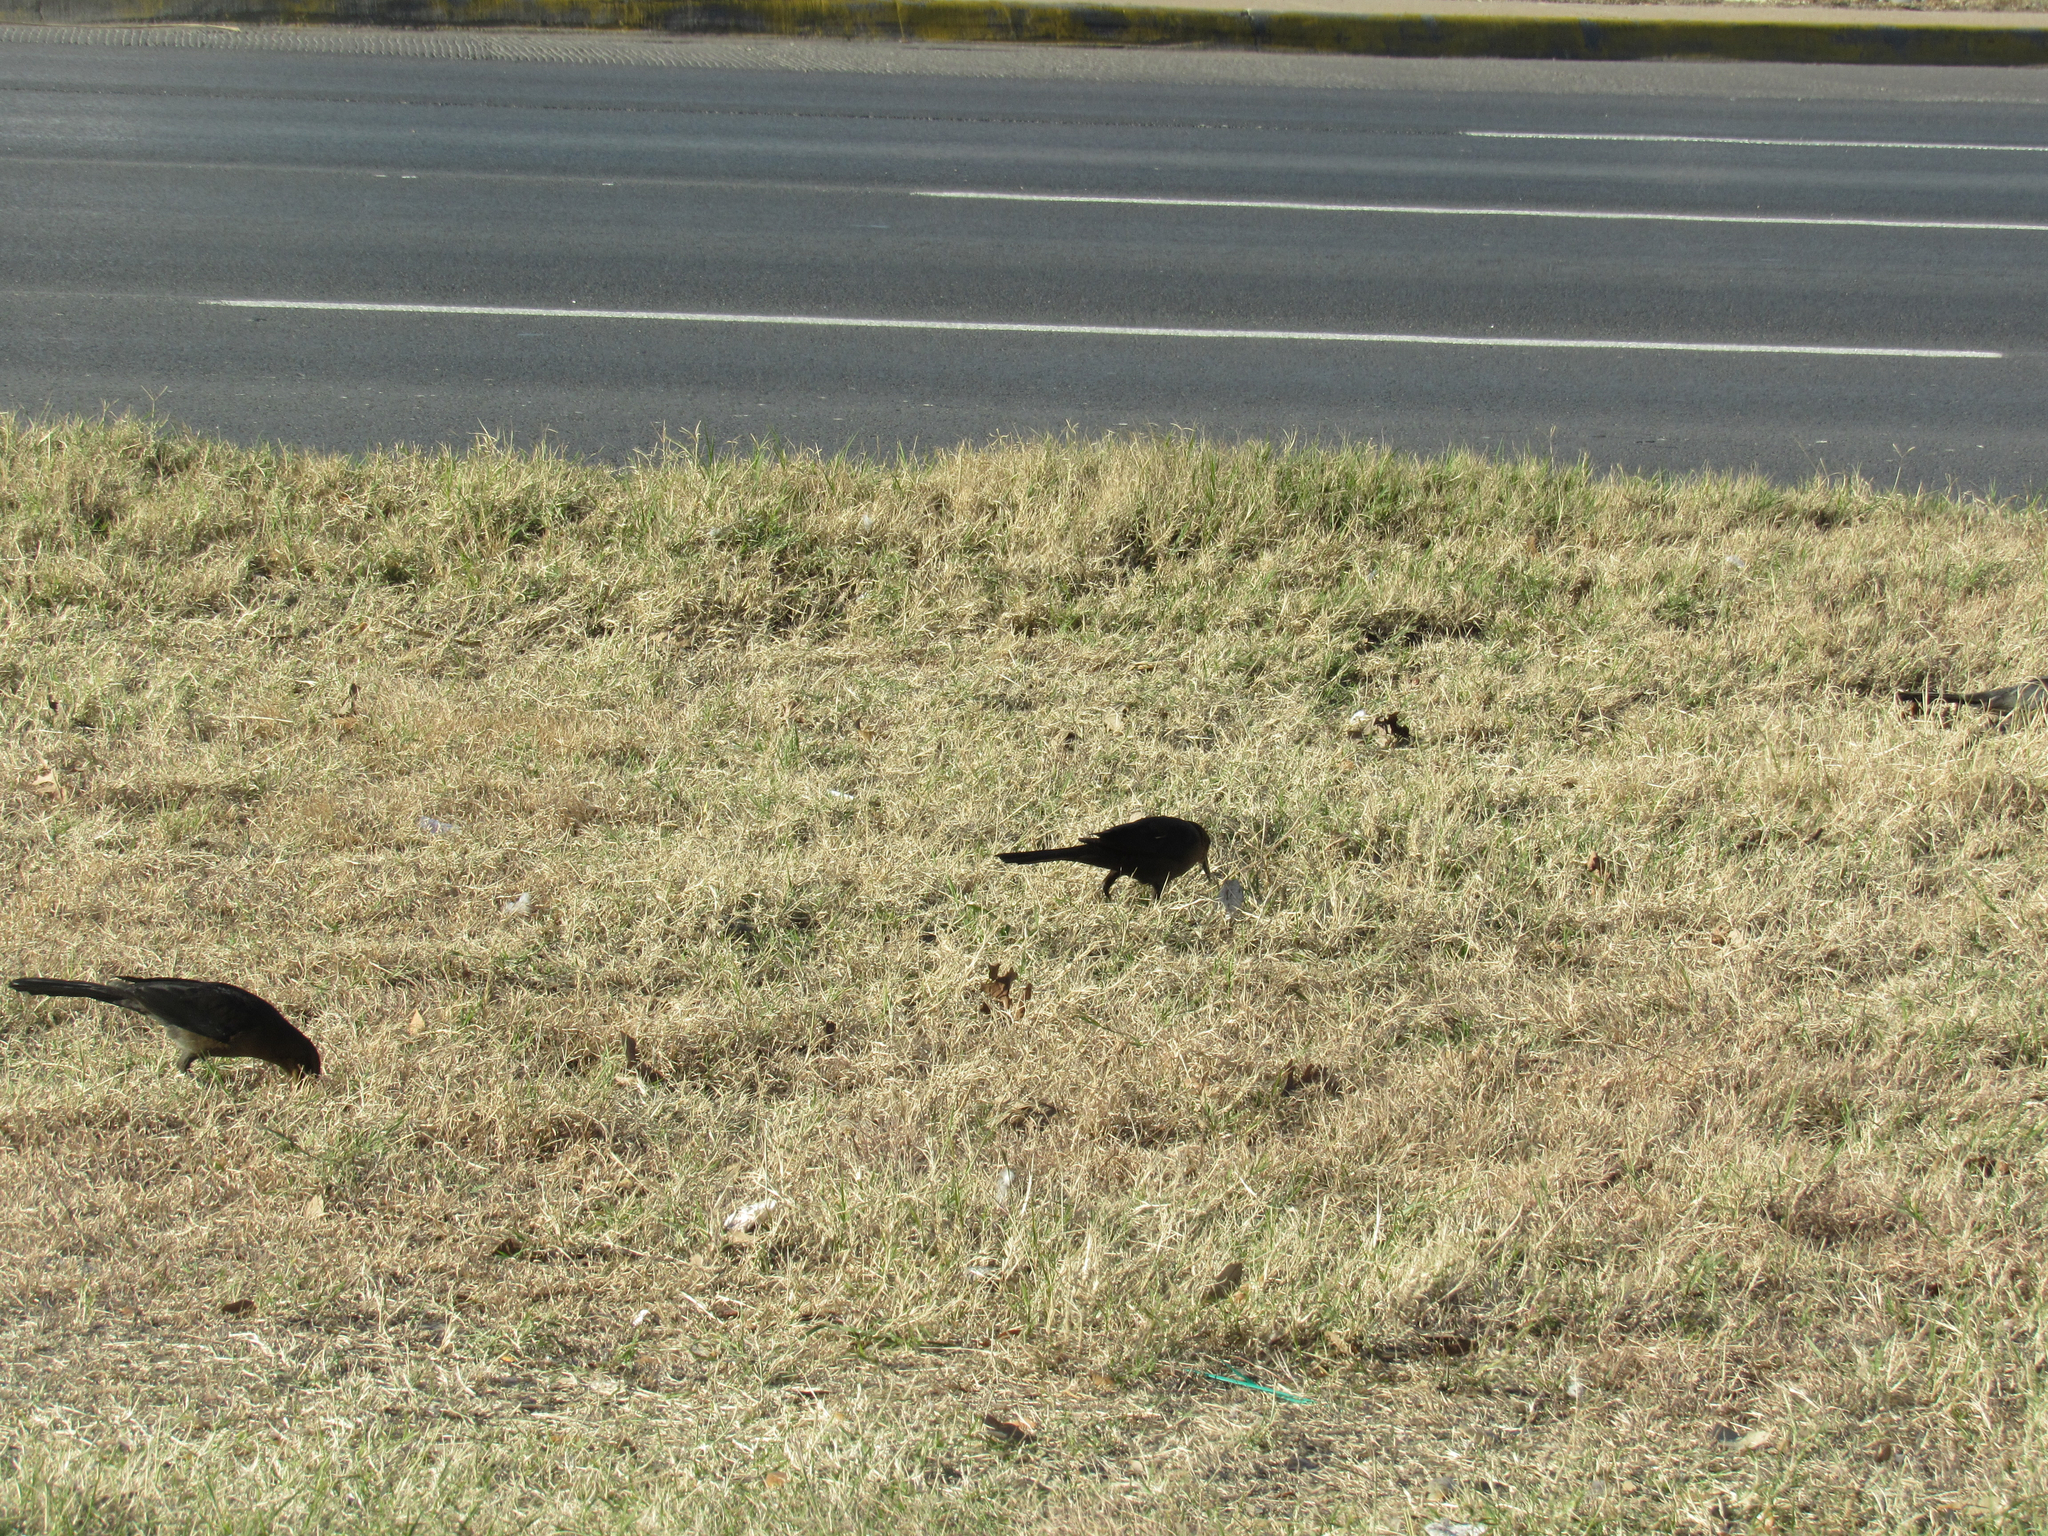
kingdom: Animalia
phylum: Chordata
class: Aves
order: Passeriformes
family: Icteridae
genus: Quiscalus
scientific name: Quiscalus mexicanus
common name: Great-tailed grackle
